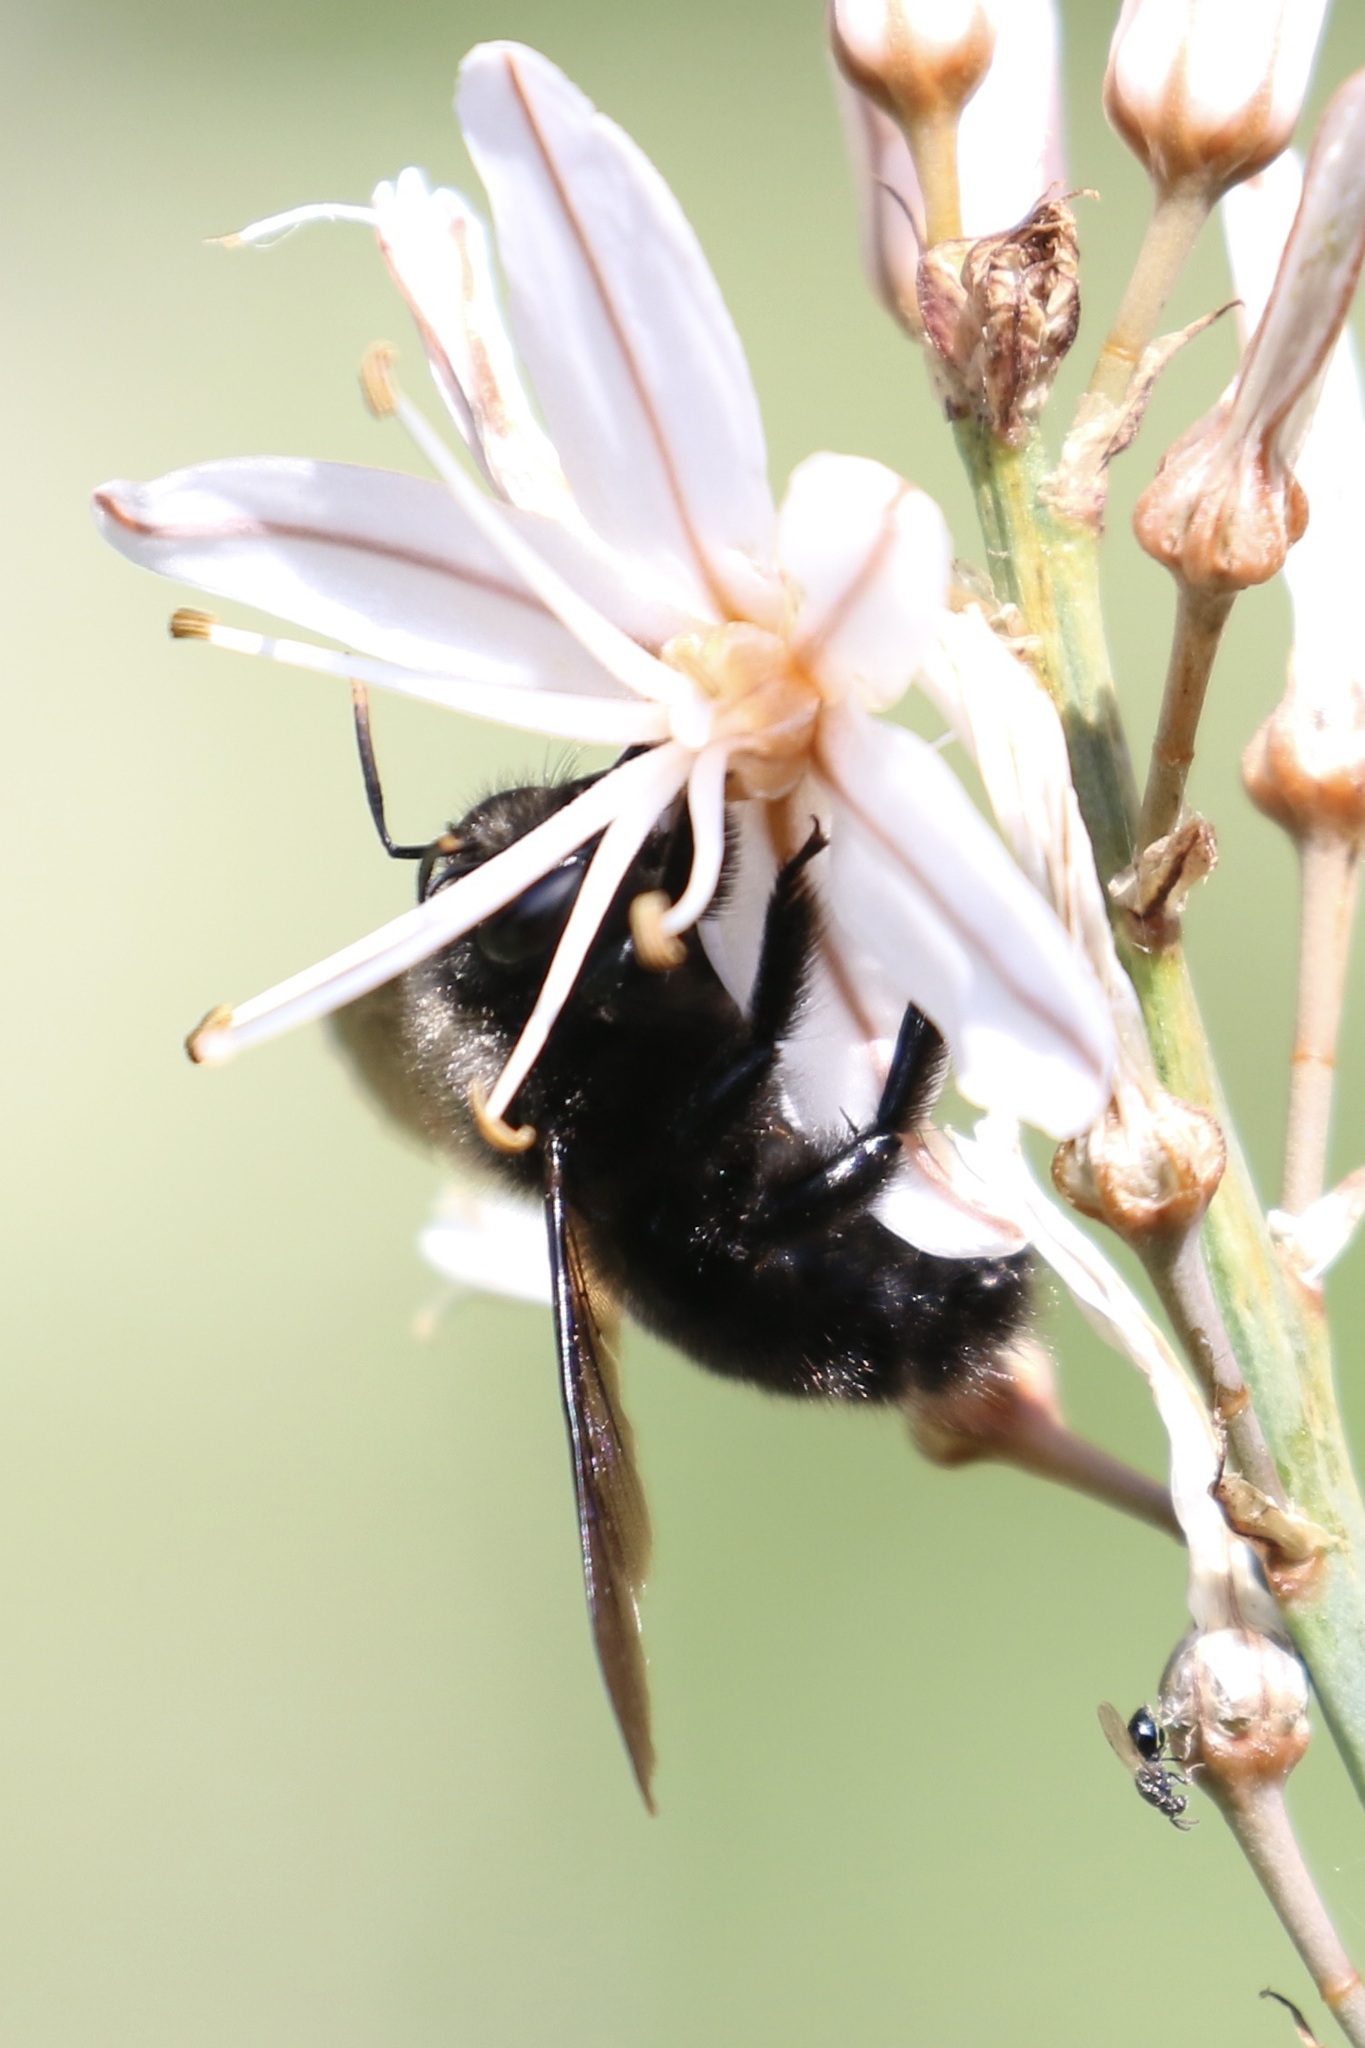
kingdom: Animalia
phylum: Arthropoda
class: Insecta
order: Hymenoptera
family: Apidae
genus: Xylocopa
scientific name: Xylocopa violacea
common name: Violet carpenter bee
